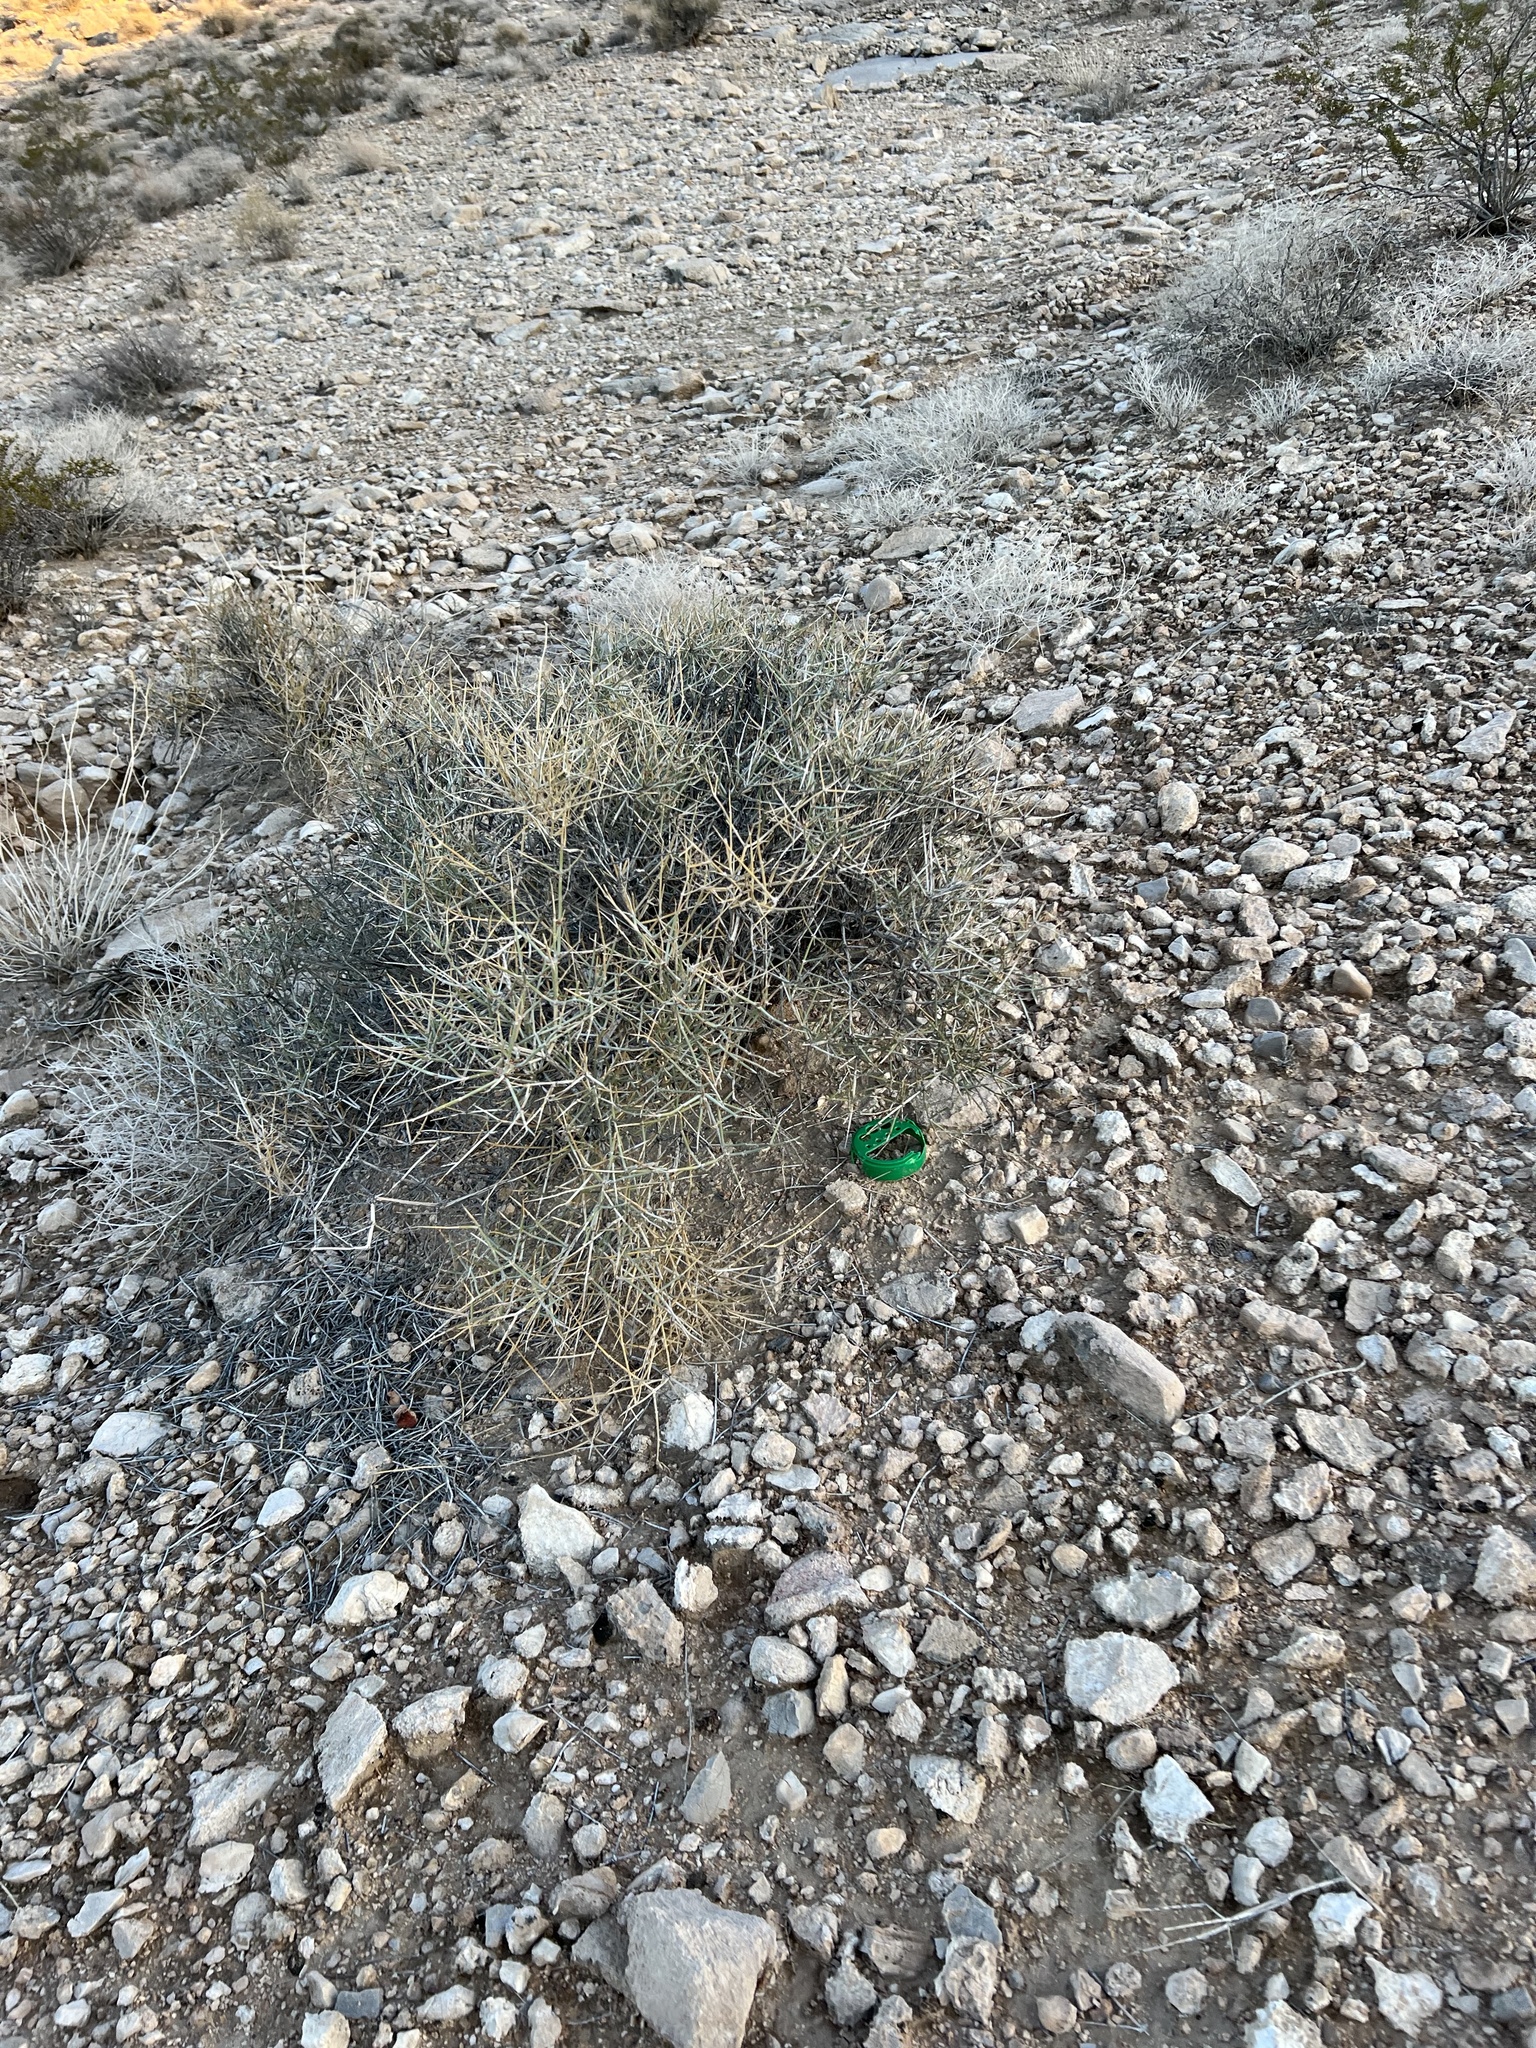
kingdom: Plantae
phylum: Tracheophyta
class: Gnetopsida
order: Ephedrales
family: Ephedraceae
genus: Ephedra
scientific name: Ephedra nevadensis
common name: Gray ephedra
